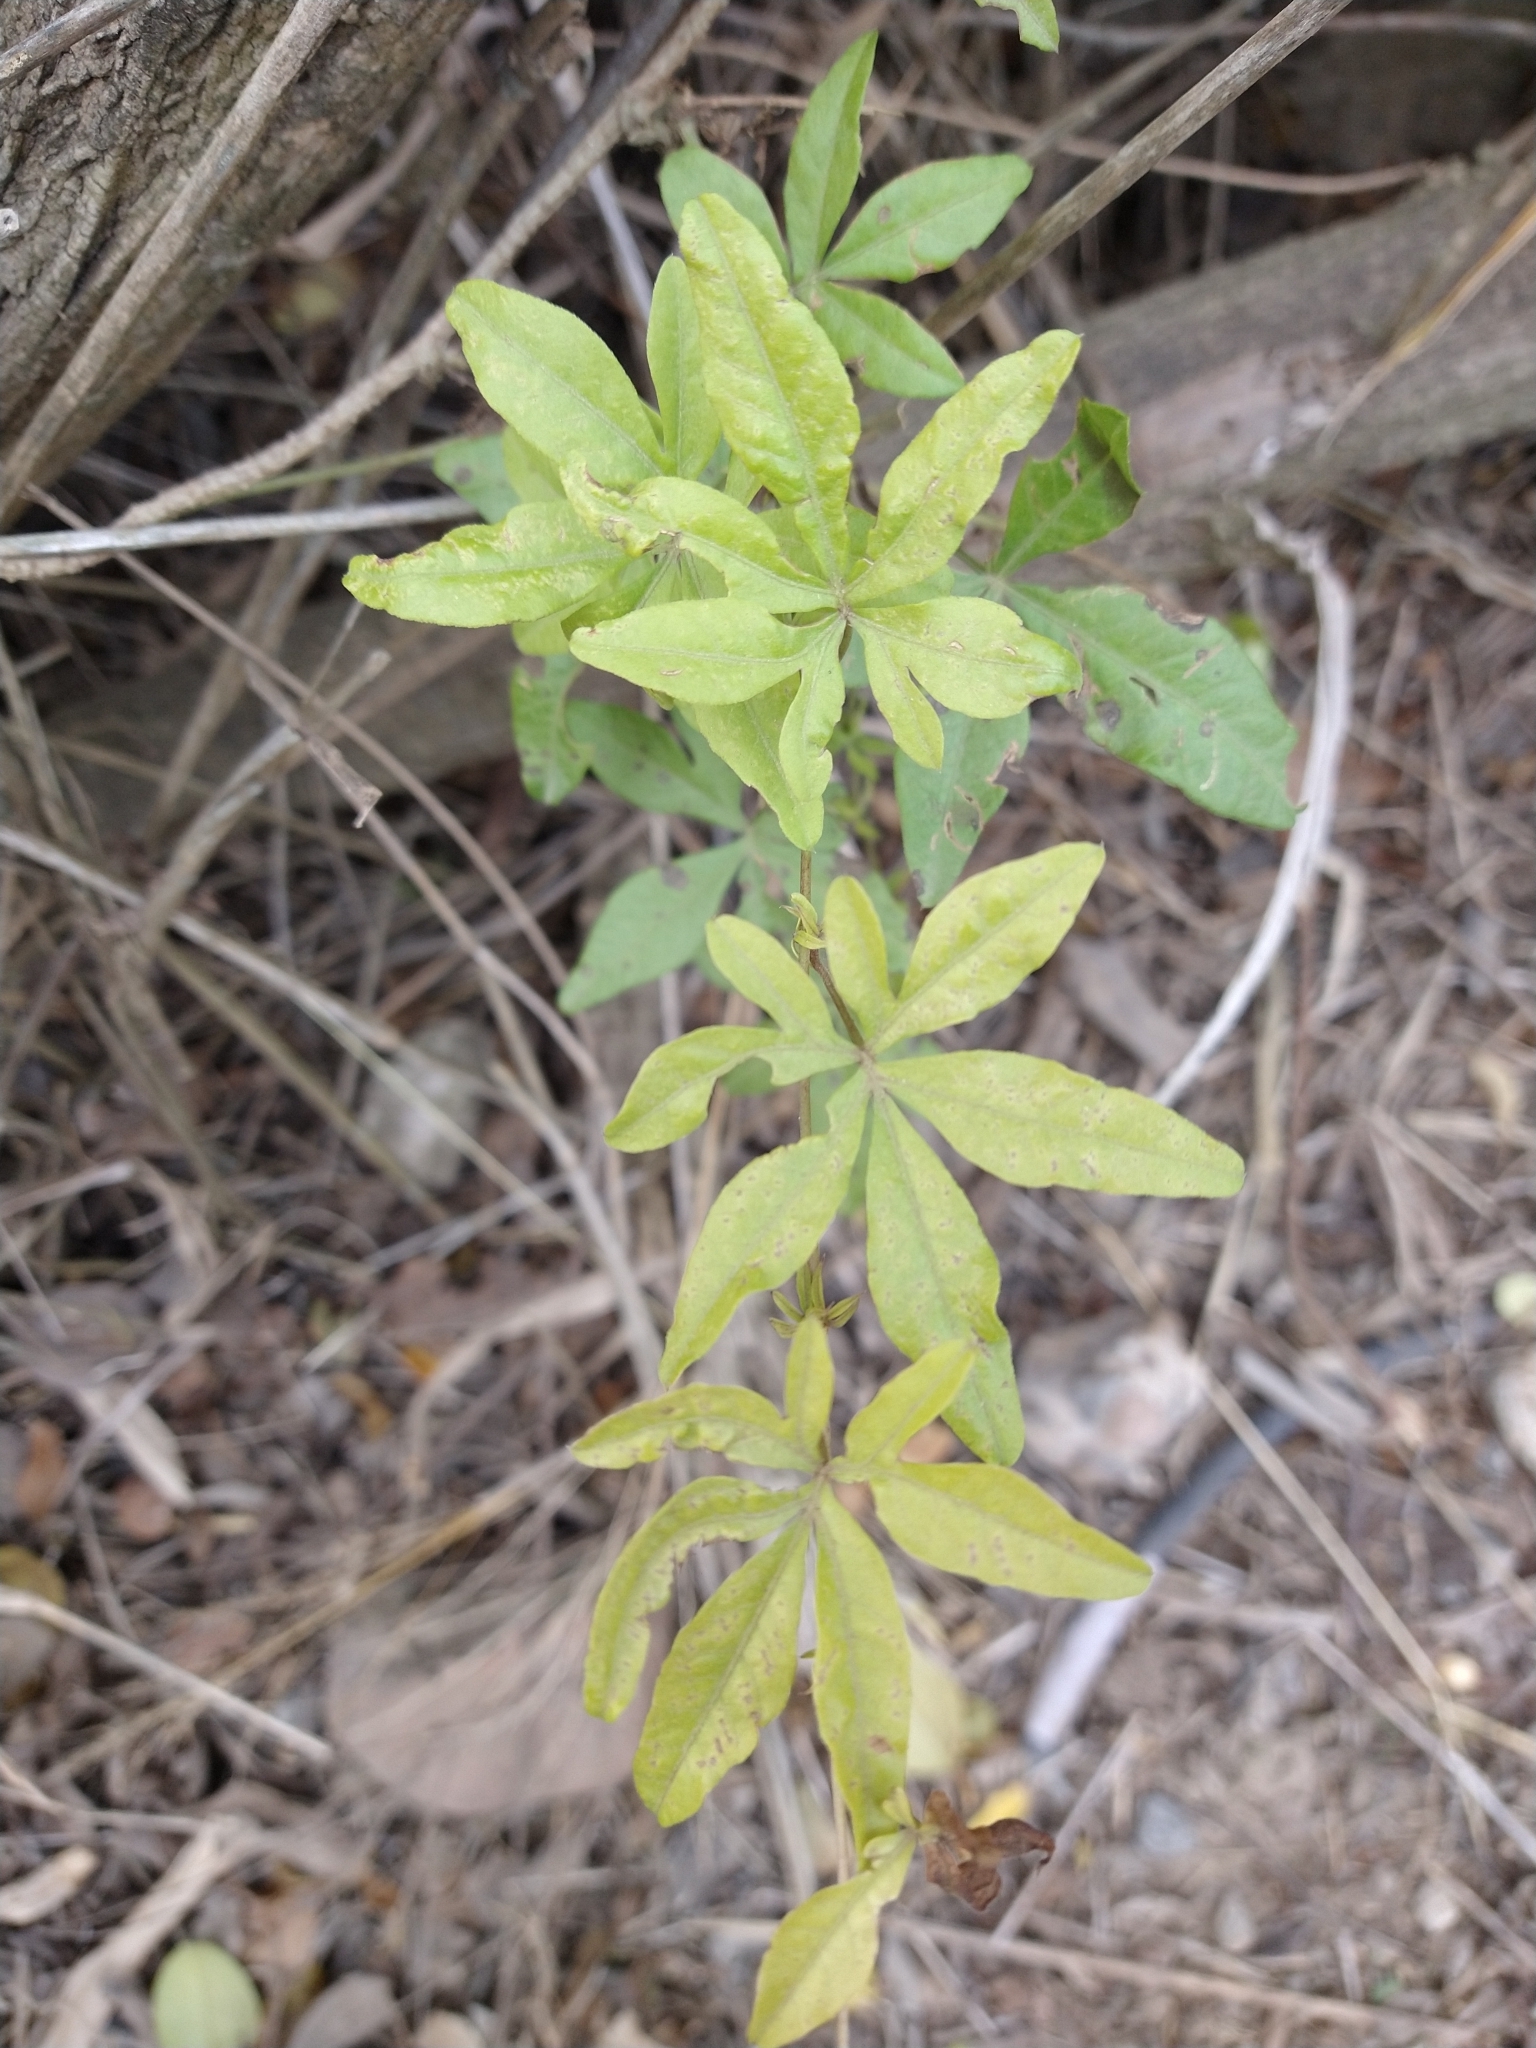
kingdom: Plantae
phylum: Tracheophyta
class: Magnoliopsida
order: Solanales
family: Convolvulaceae
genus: Ipomoea
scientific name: Ipomoea cairica
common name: Mile a minute vine
